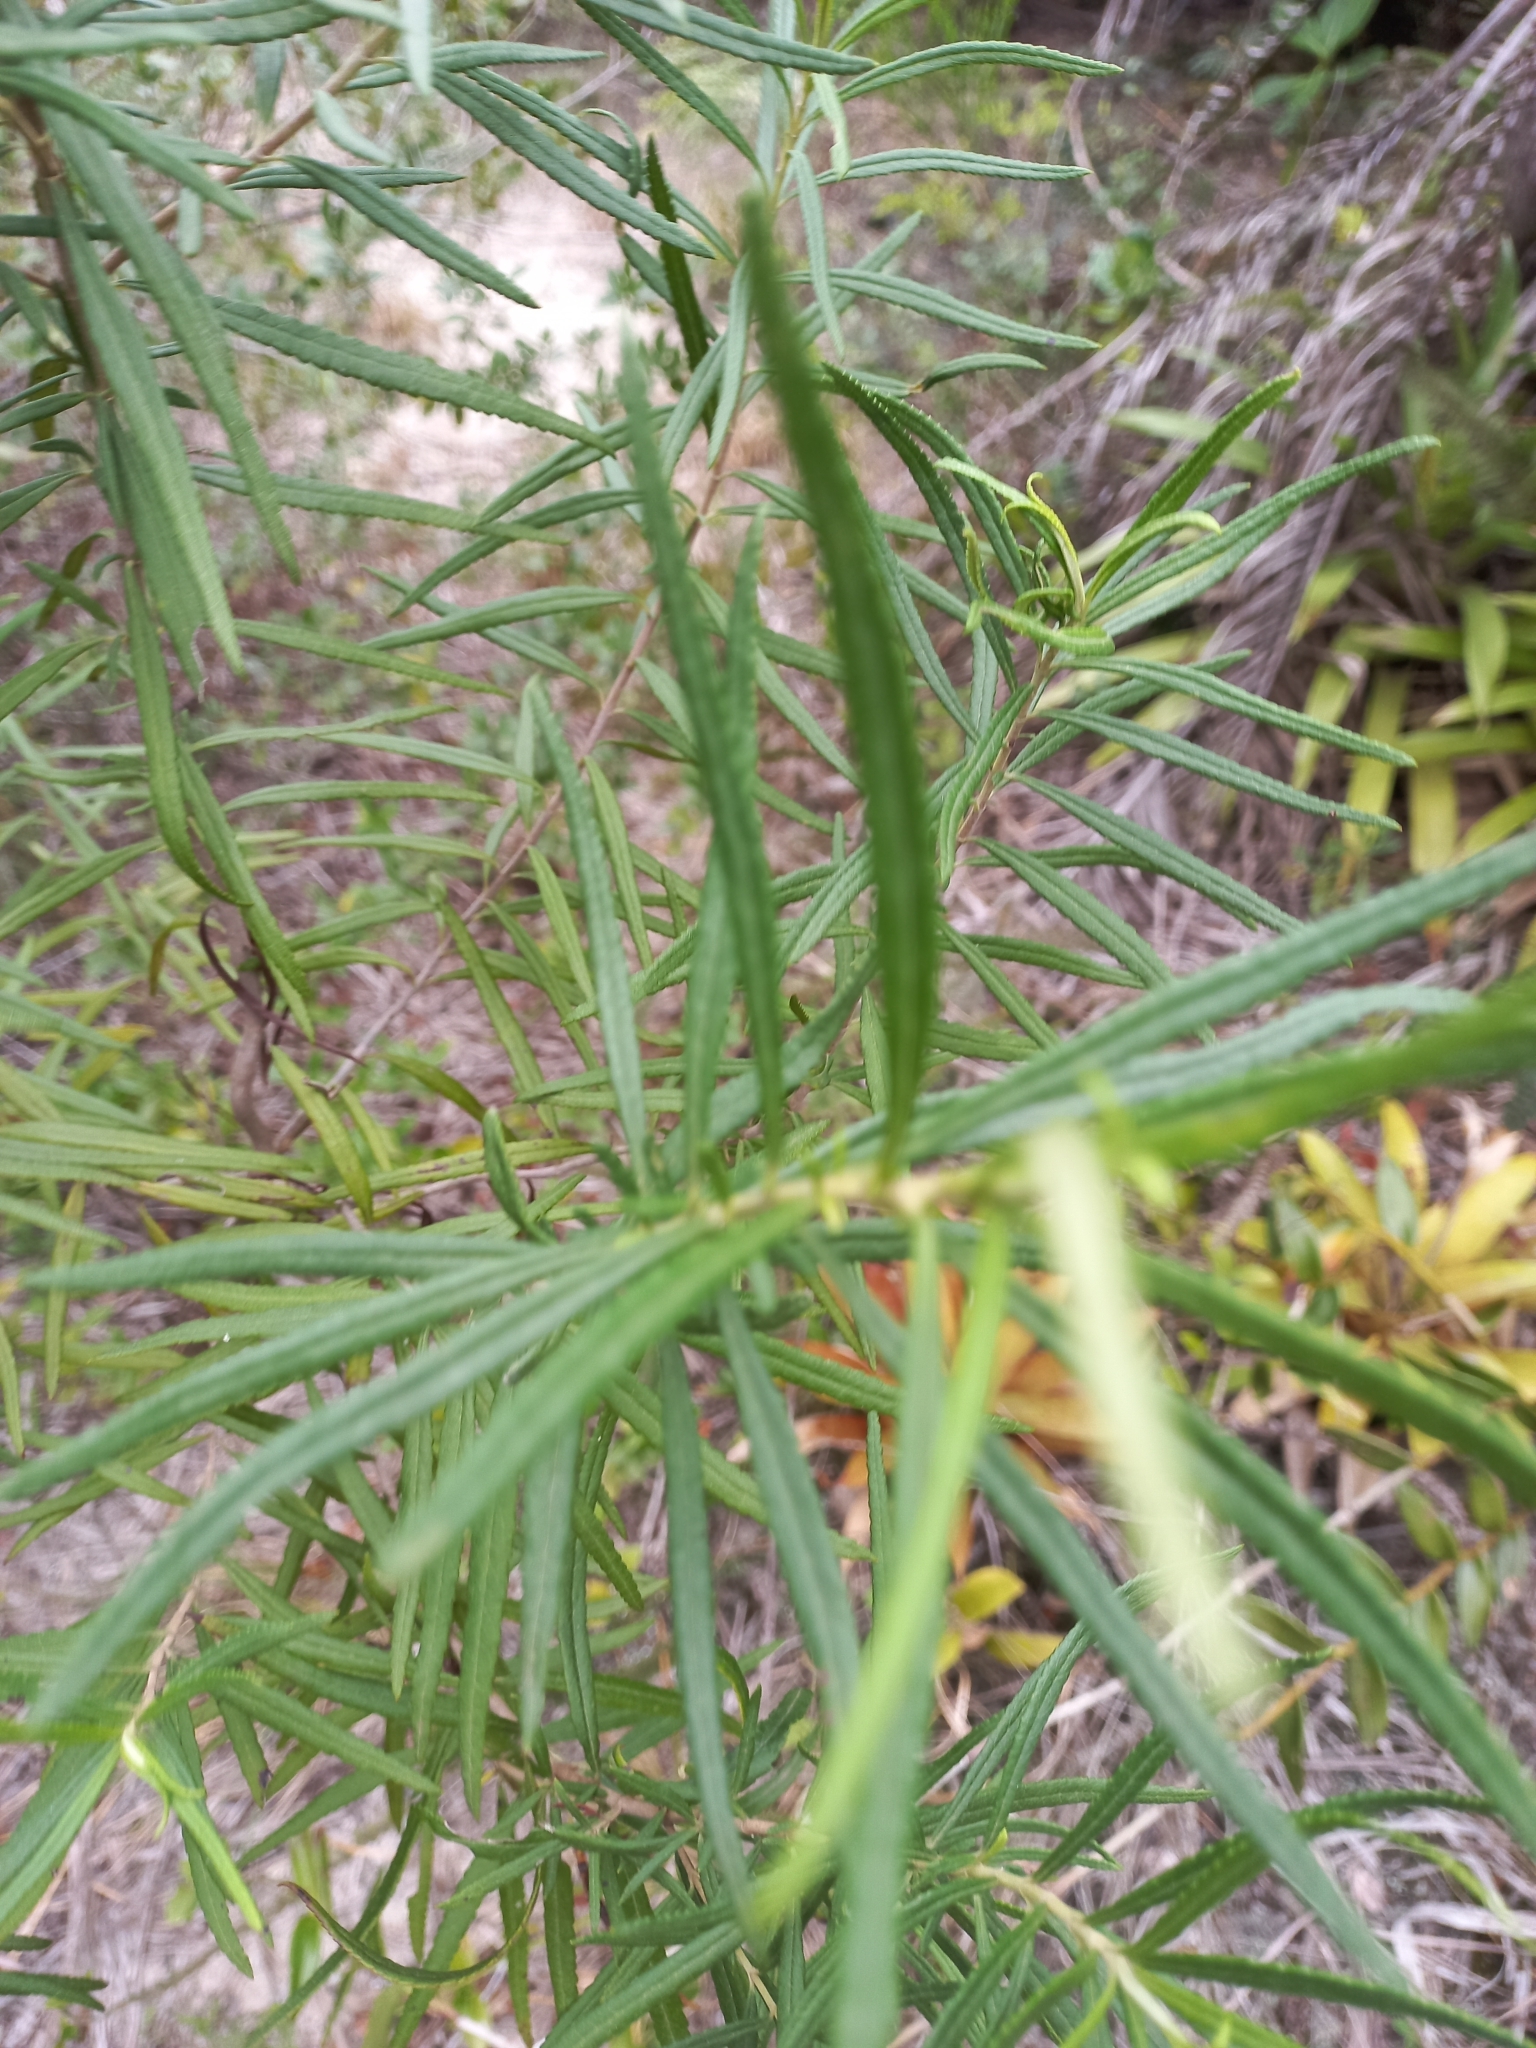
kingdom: Plantae
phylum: Tracheophyta
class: Magnoliopsida
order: Asterales
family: Asteraceae
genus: Grazielia
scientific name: Grazielia serrata
